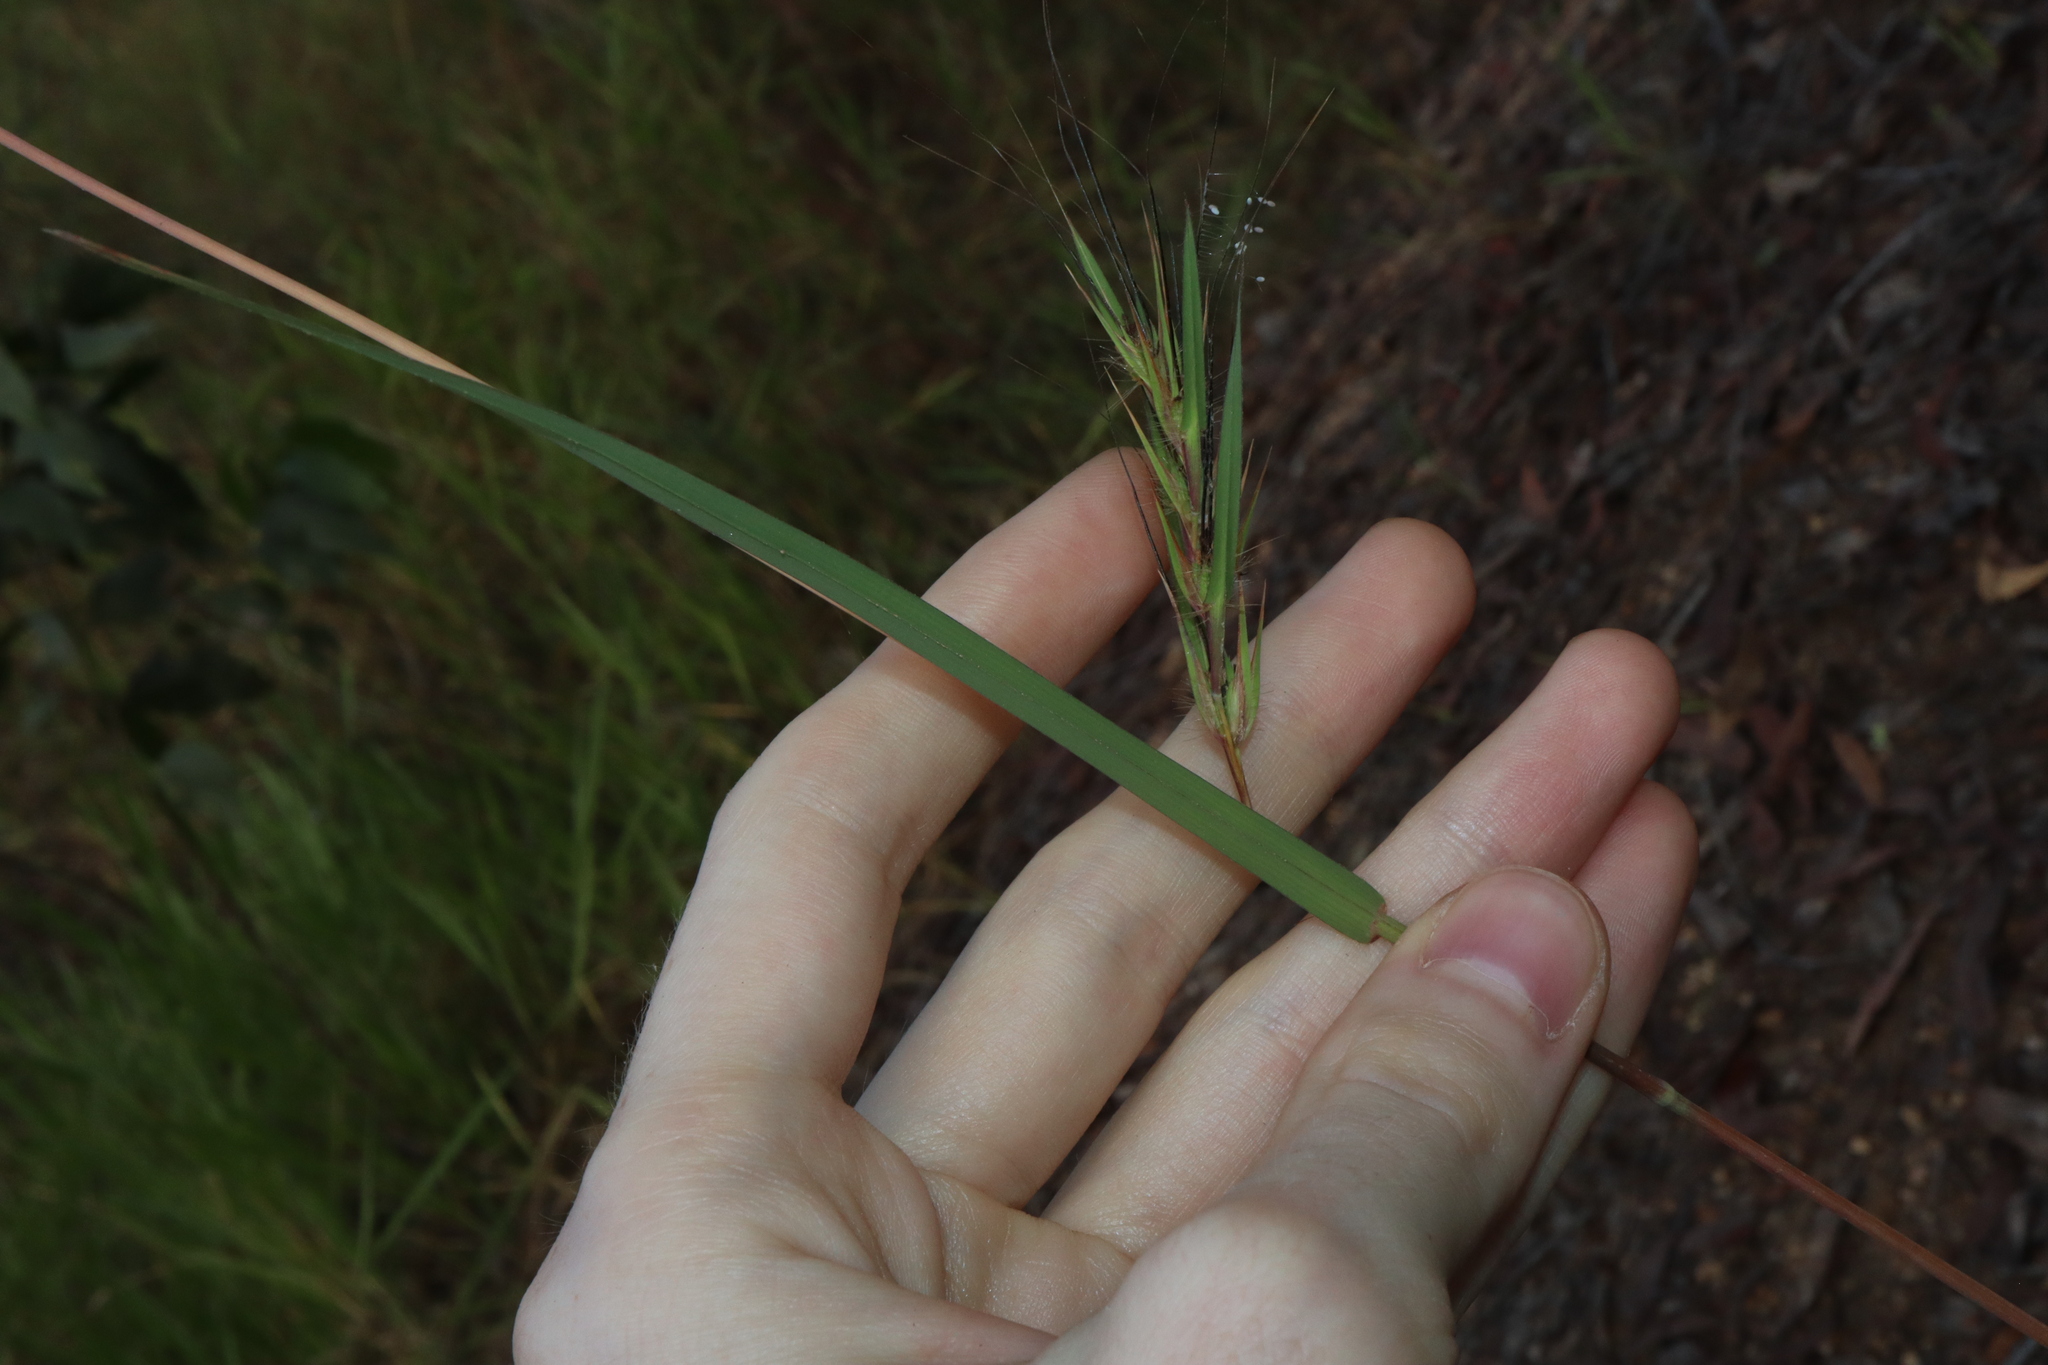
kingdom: Plantae
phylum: Tracheophyta
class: Liliopsida
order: Poales
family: Poaceae
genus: Themeda
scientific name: Themeda quadrivalvis
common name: Kangaroo grass
